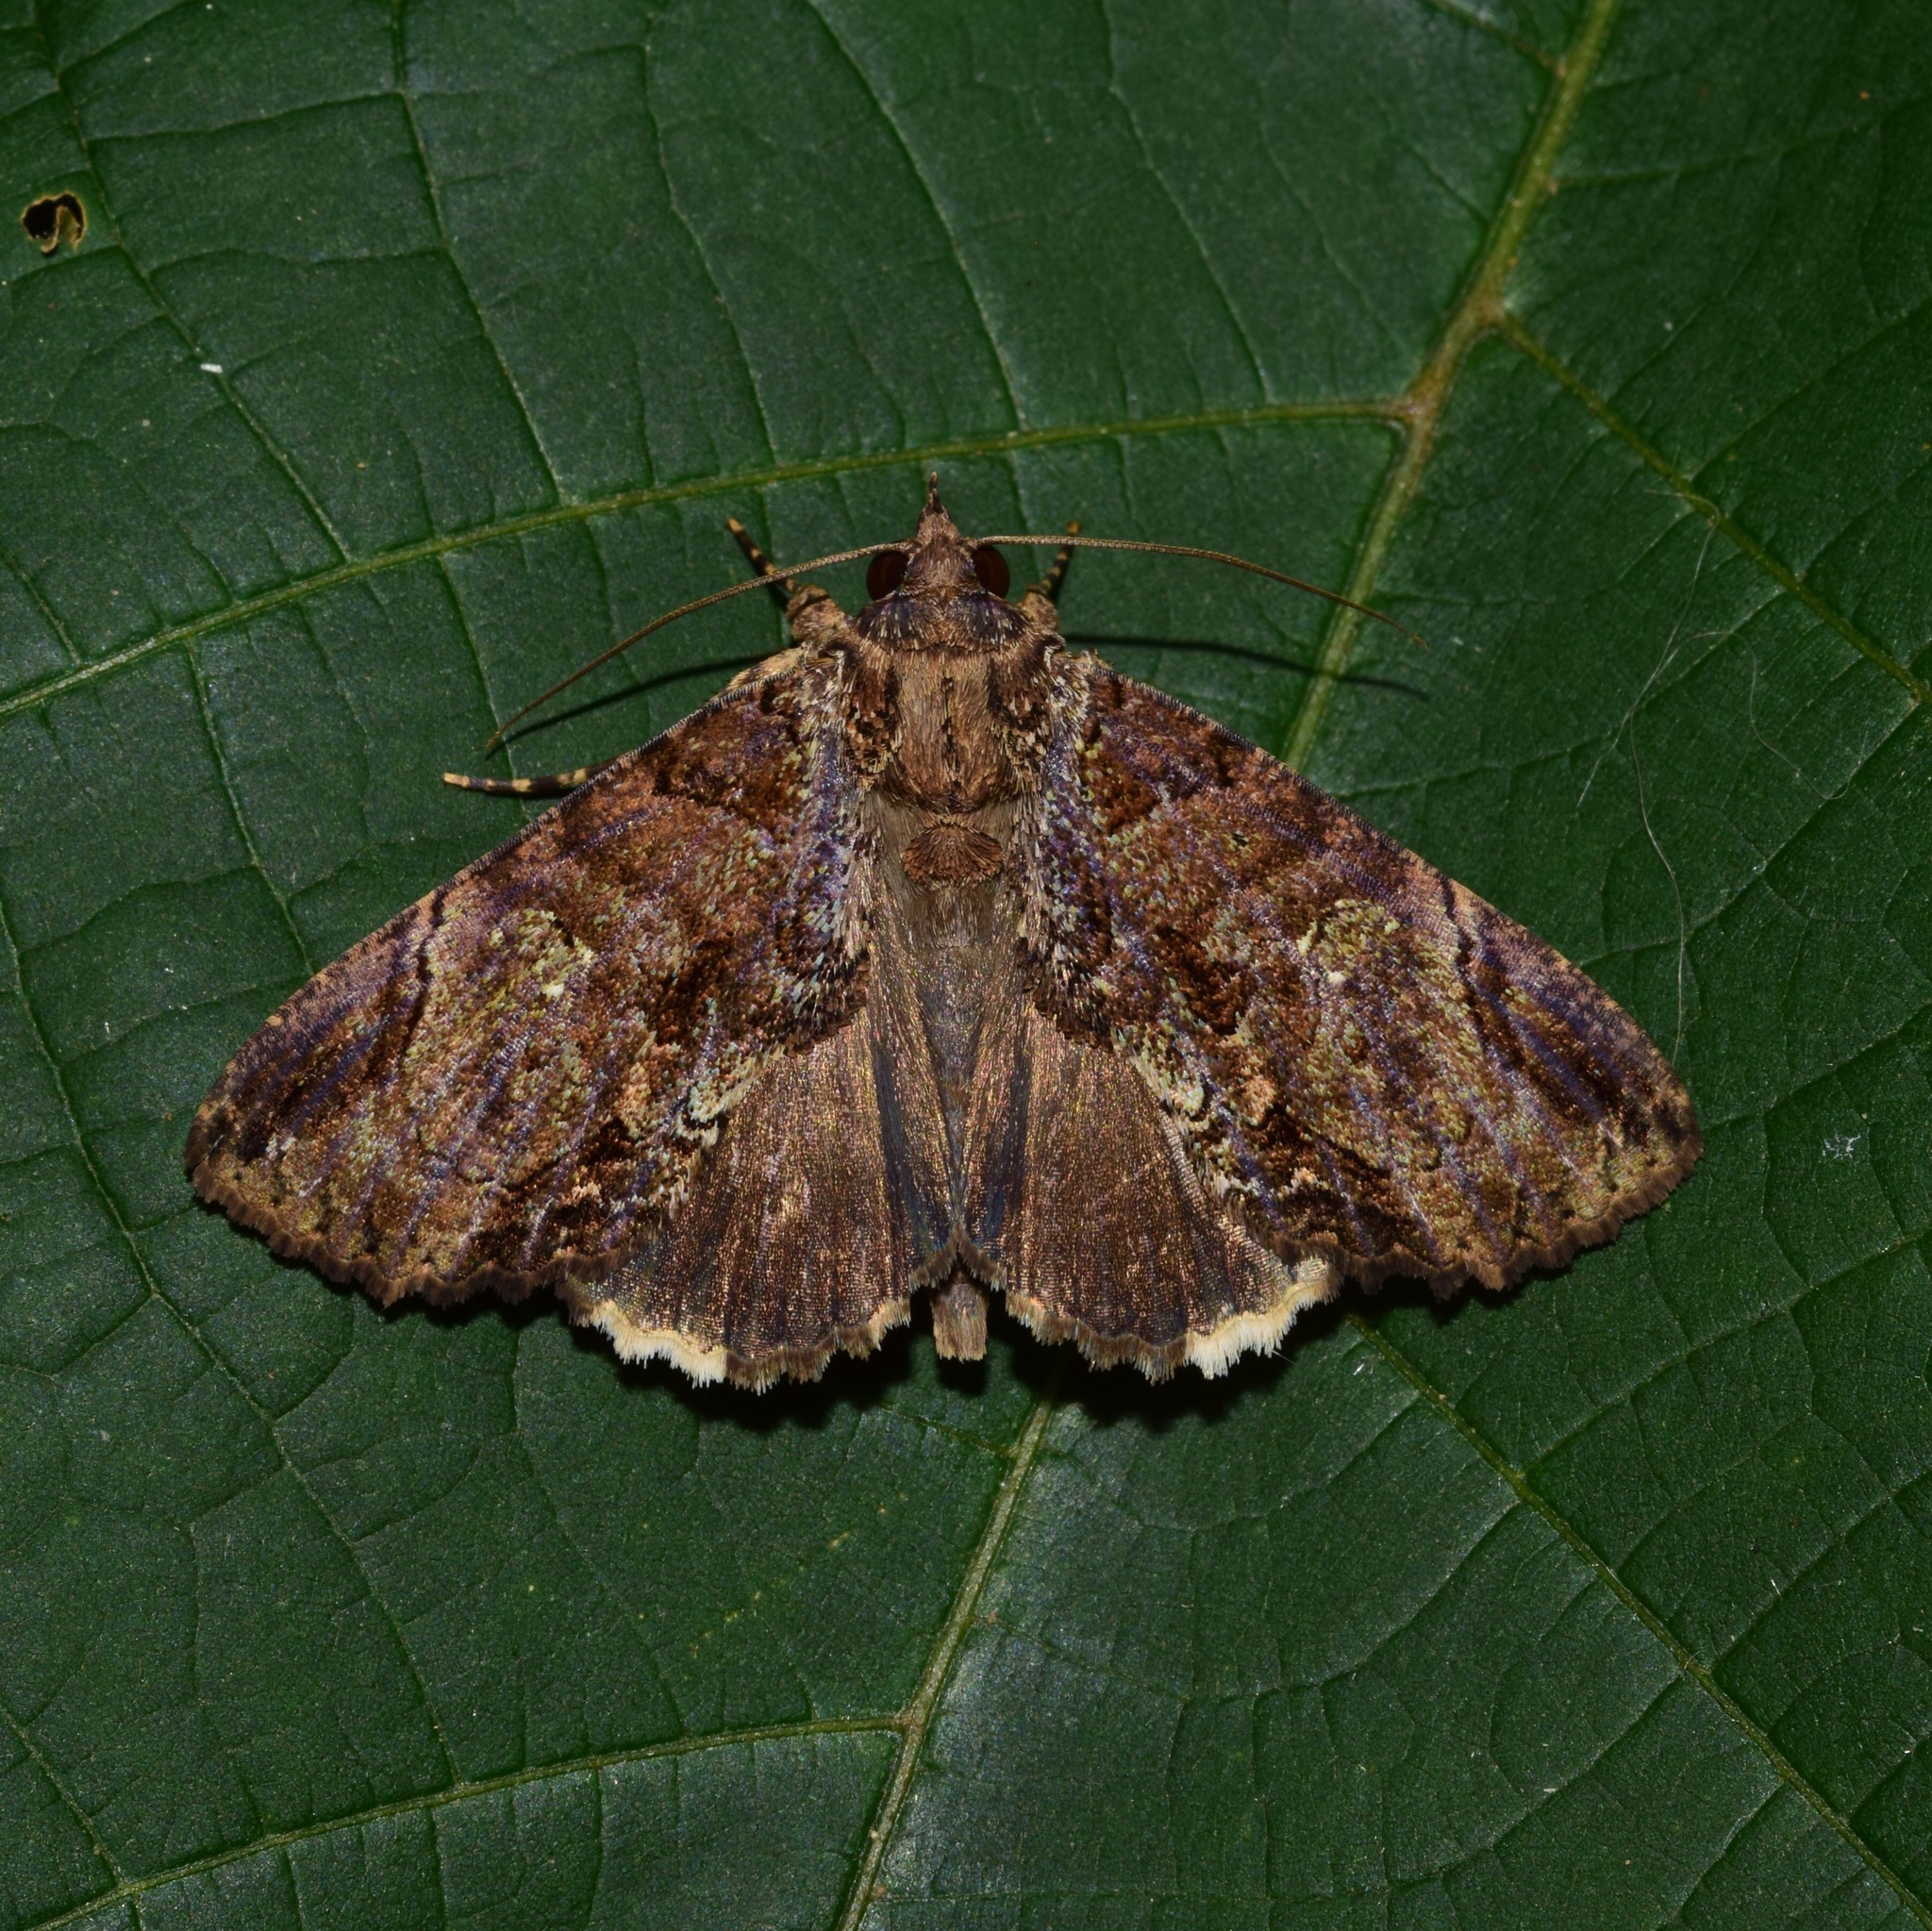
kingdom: Animalia
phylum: Arthropoda
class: Insecta
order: Lepidoptera
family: Erebidae
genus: Achaea
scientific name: Achaea catella
